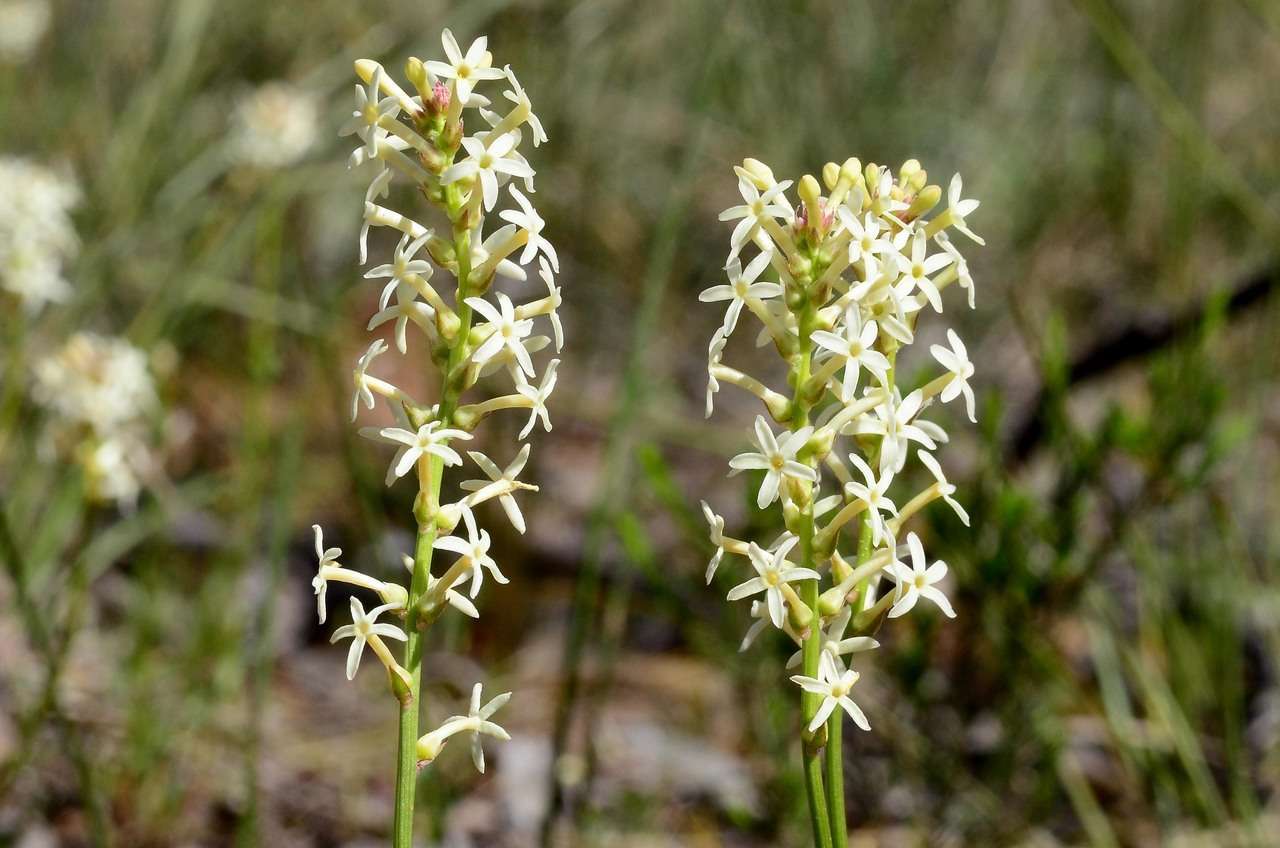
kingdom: Plantae
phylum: Tracheophyta
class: Magnoliopsida
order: Celastrales
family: Celastraceae
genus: Stackhousia
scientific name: Stackhousia subterranea
